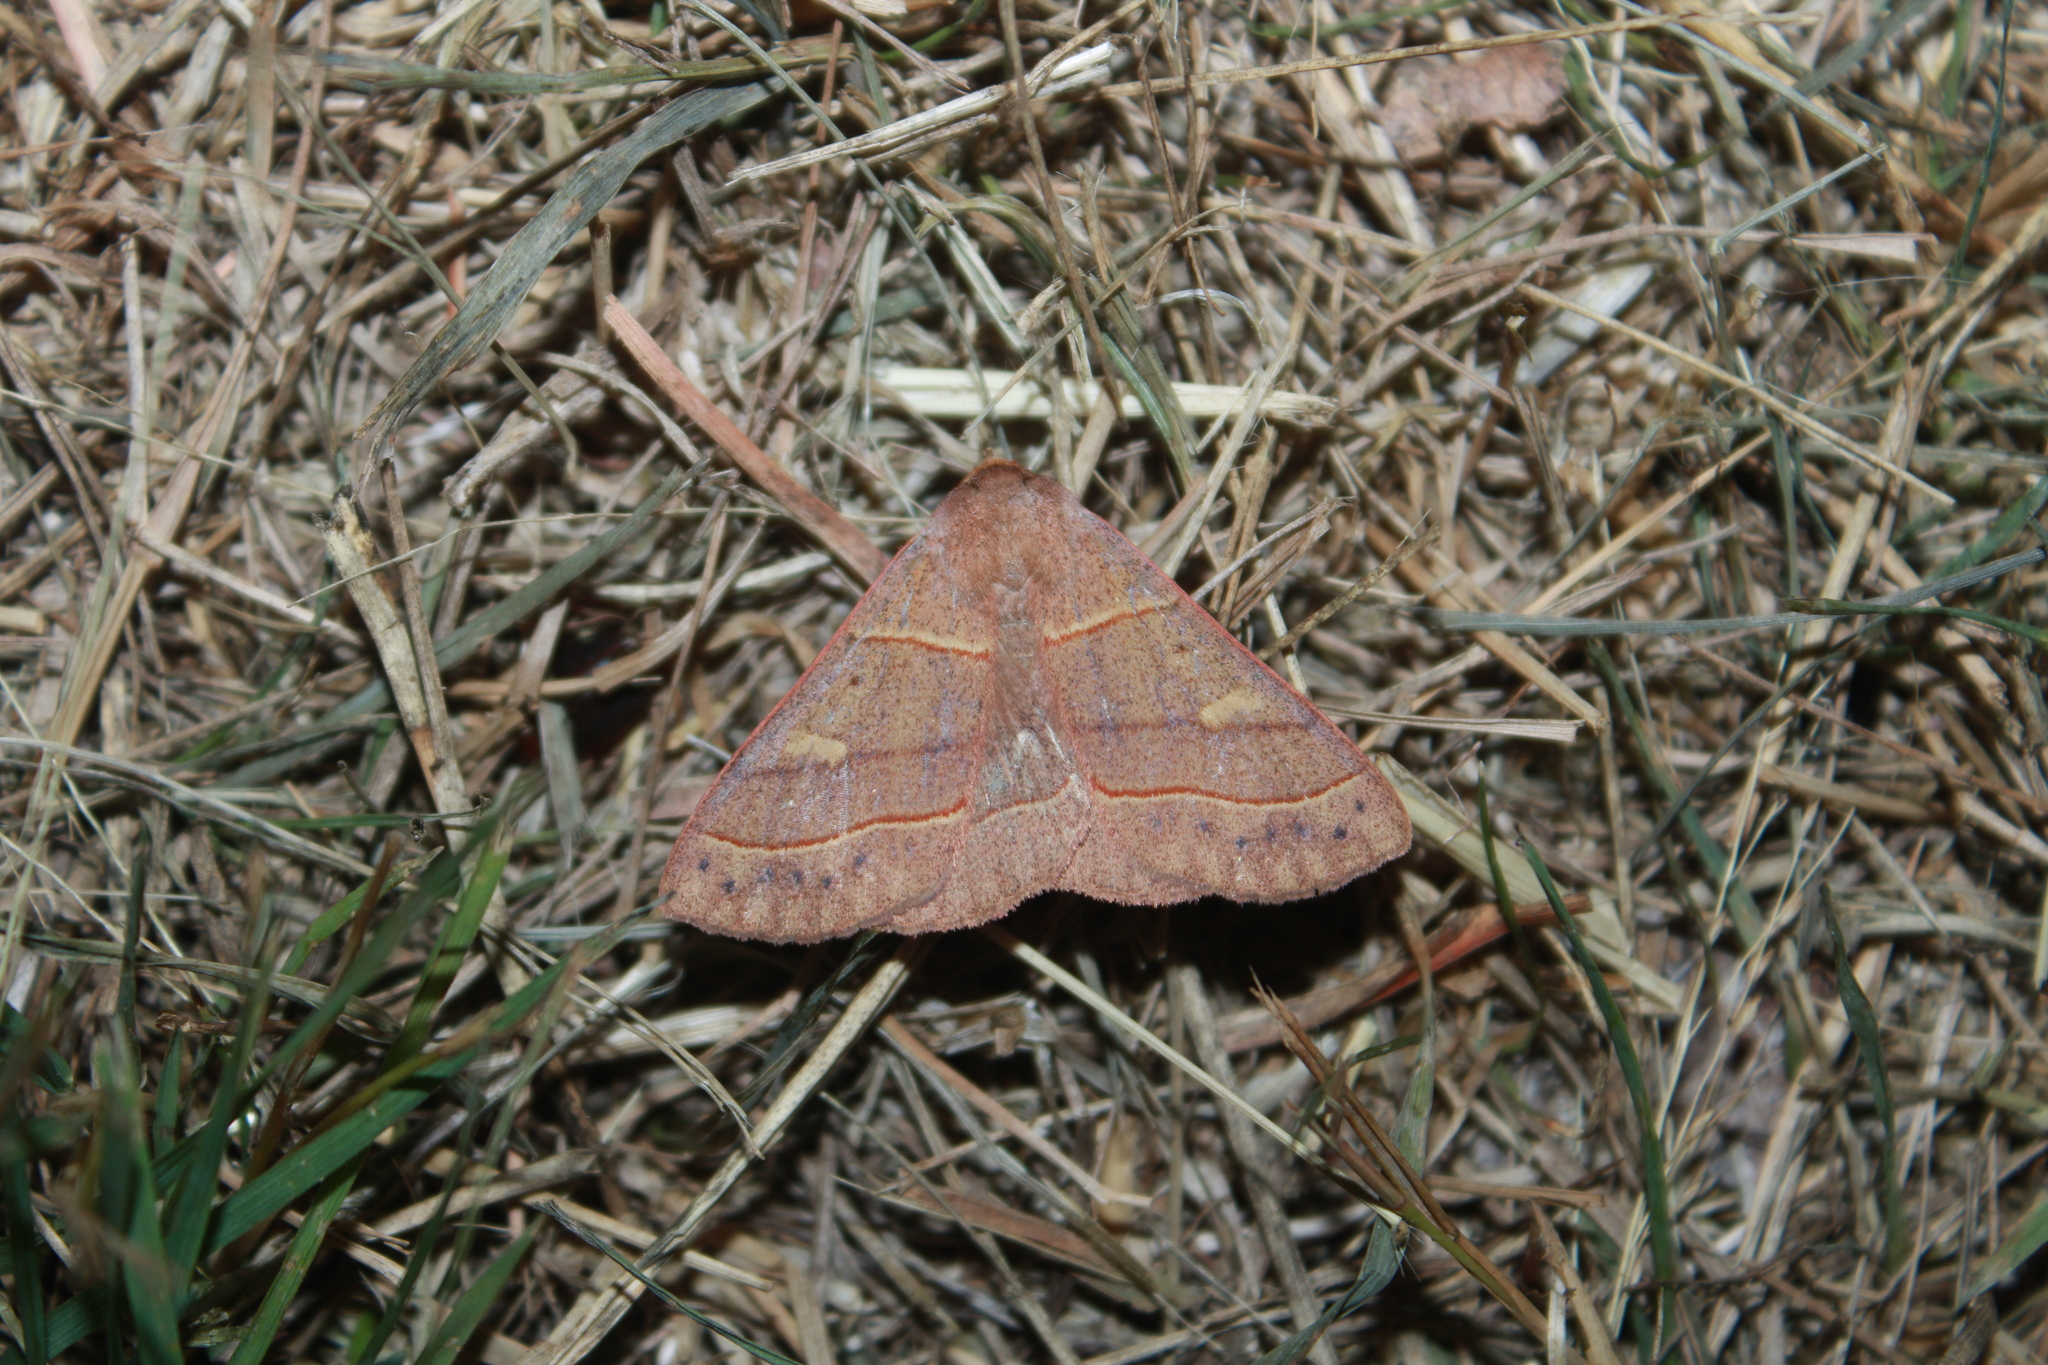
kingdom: Animalia
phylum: Arthropoda
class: Insecta
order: Lepidoptera
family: Erebidae
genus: Panopoda
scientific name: Panopoda rufimargo
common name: Red-lined panopoda moth
